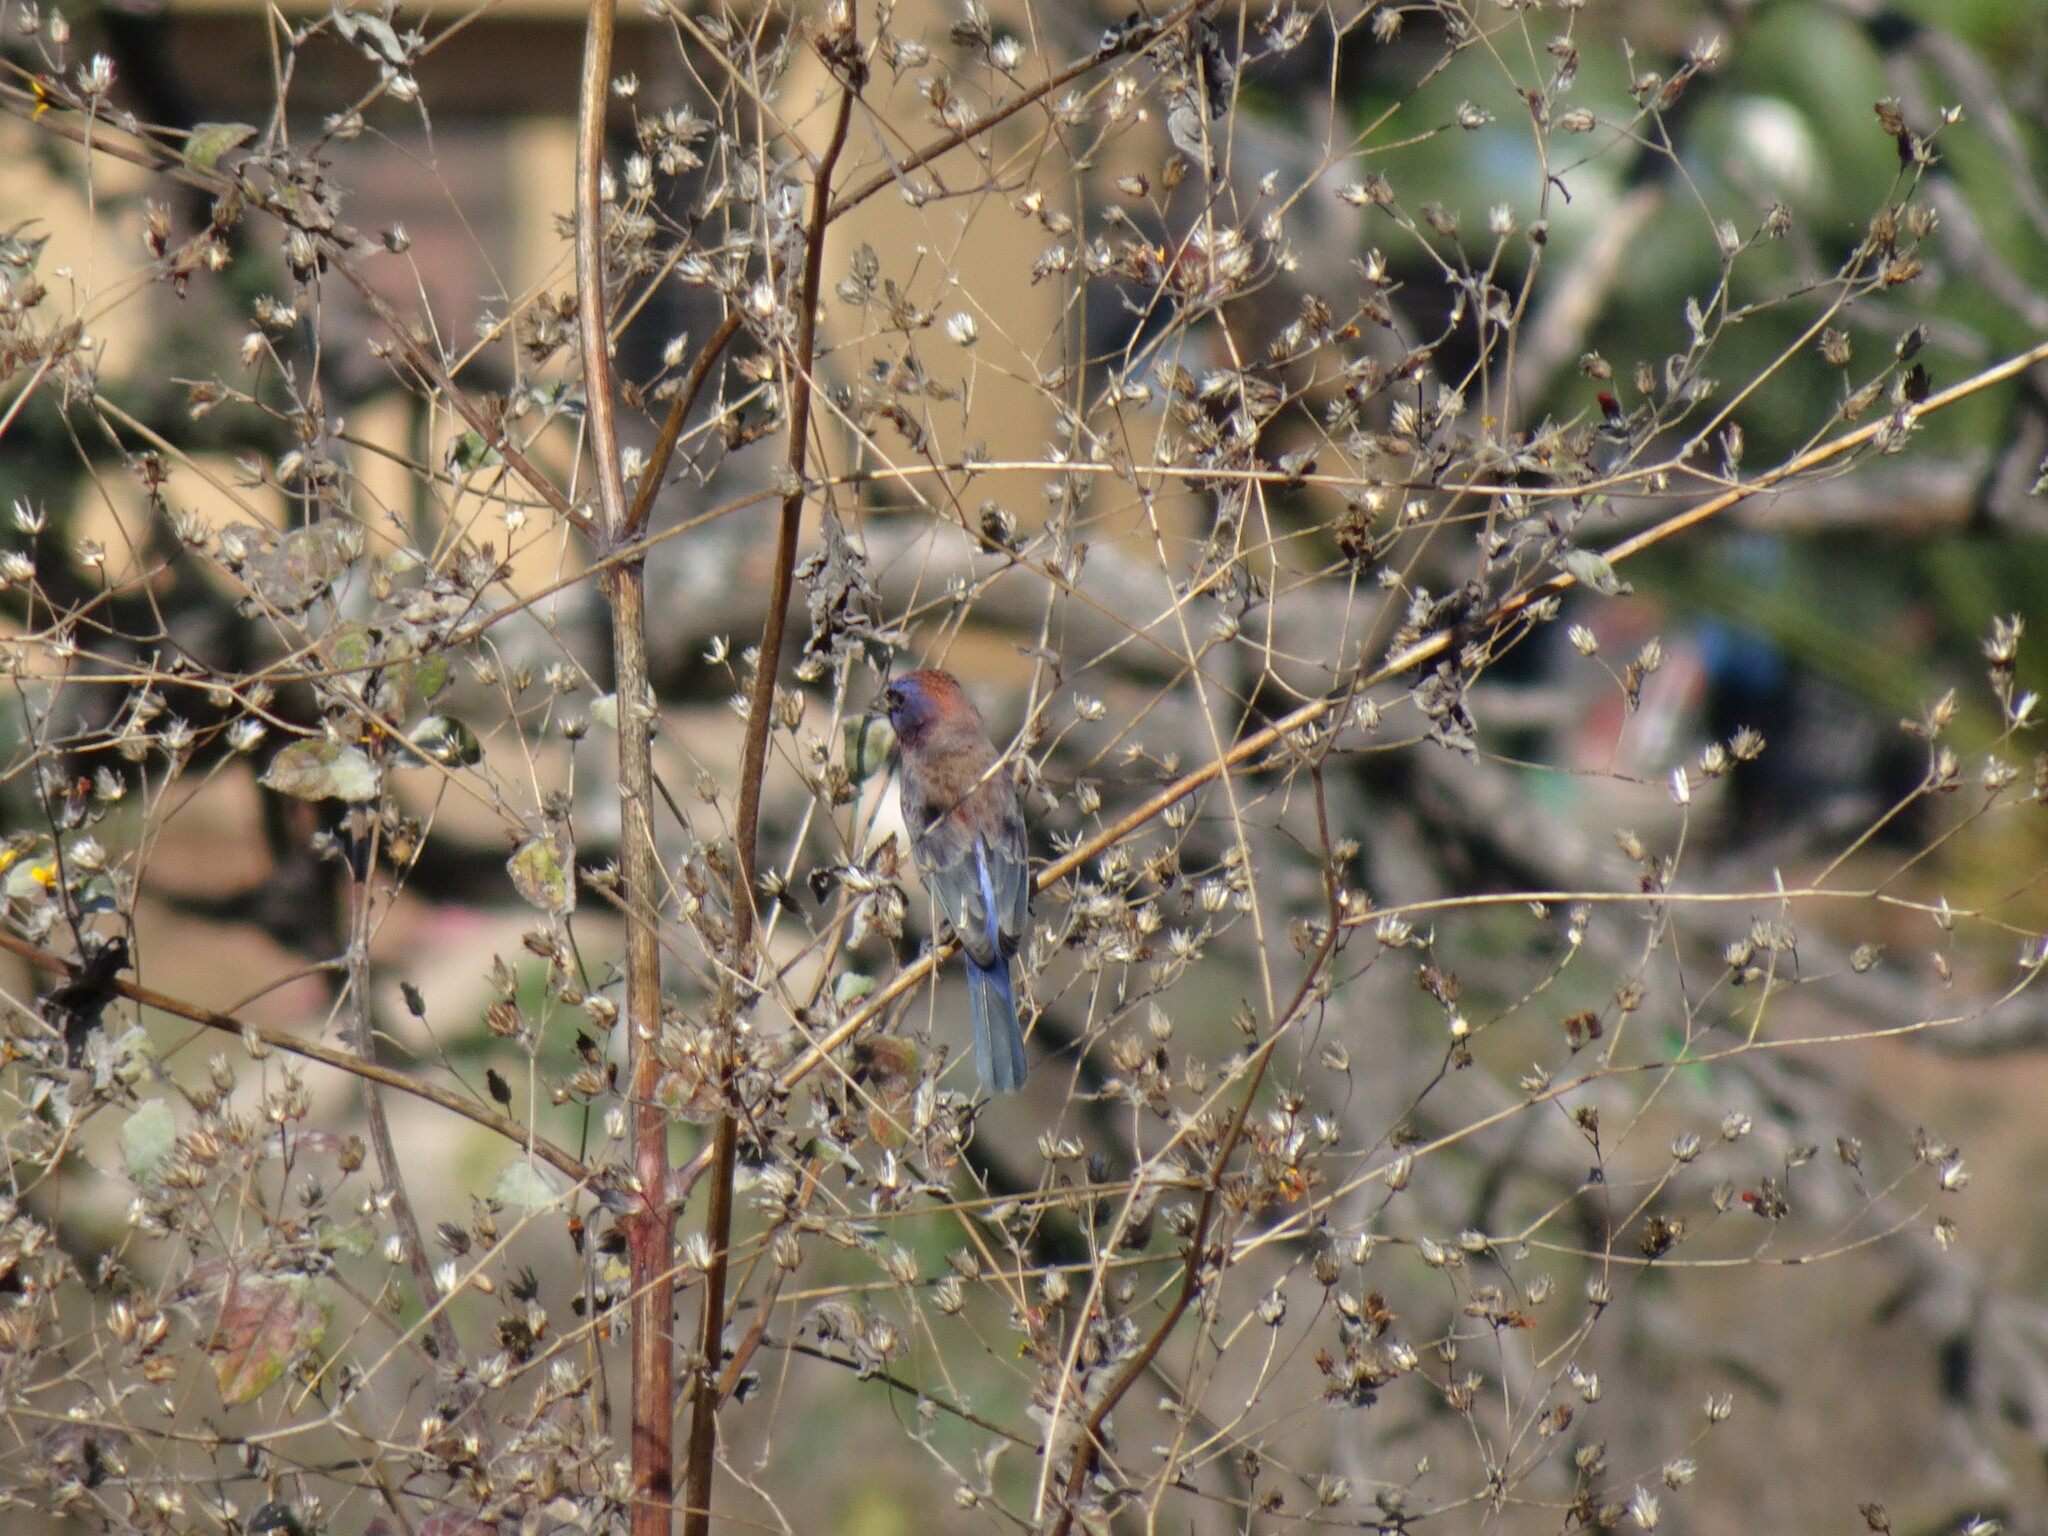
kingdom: Animalia
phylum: Chordata
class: Aves
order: Passeriformes
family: Cardinalidae
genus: Passerina
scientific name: Passerina versicolor
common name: Varied bunting
